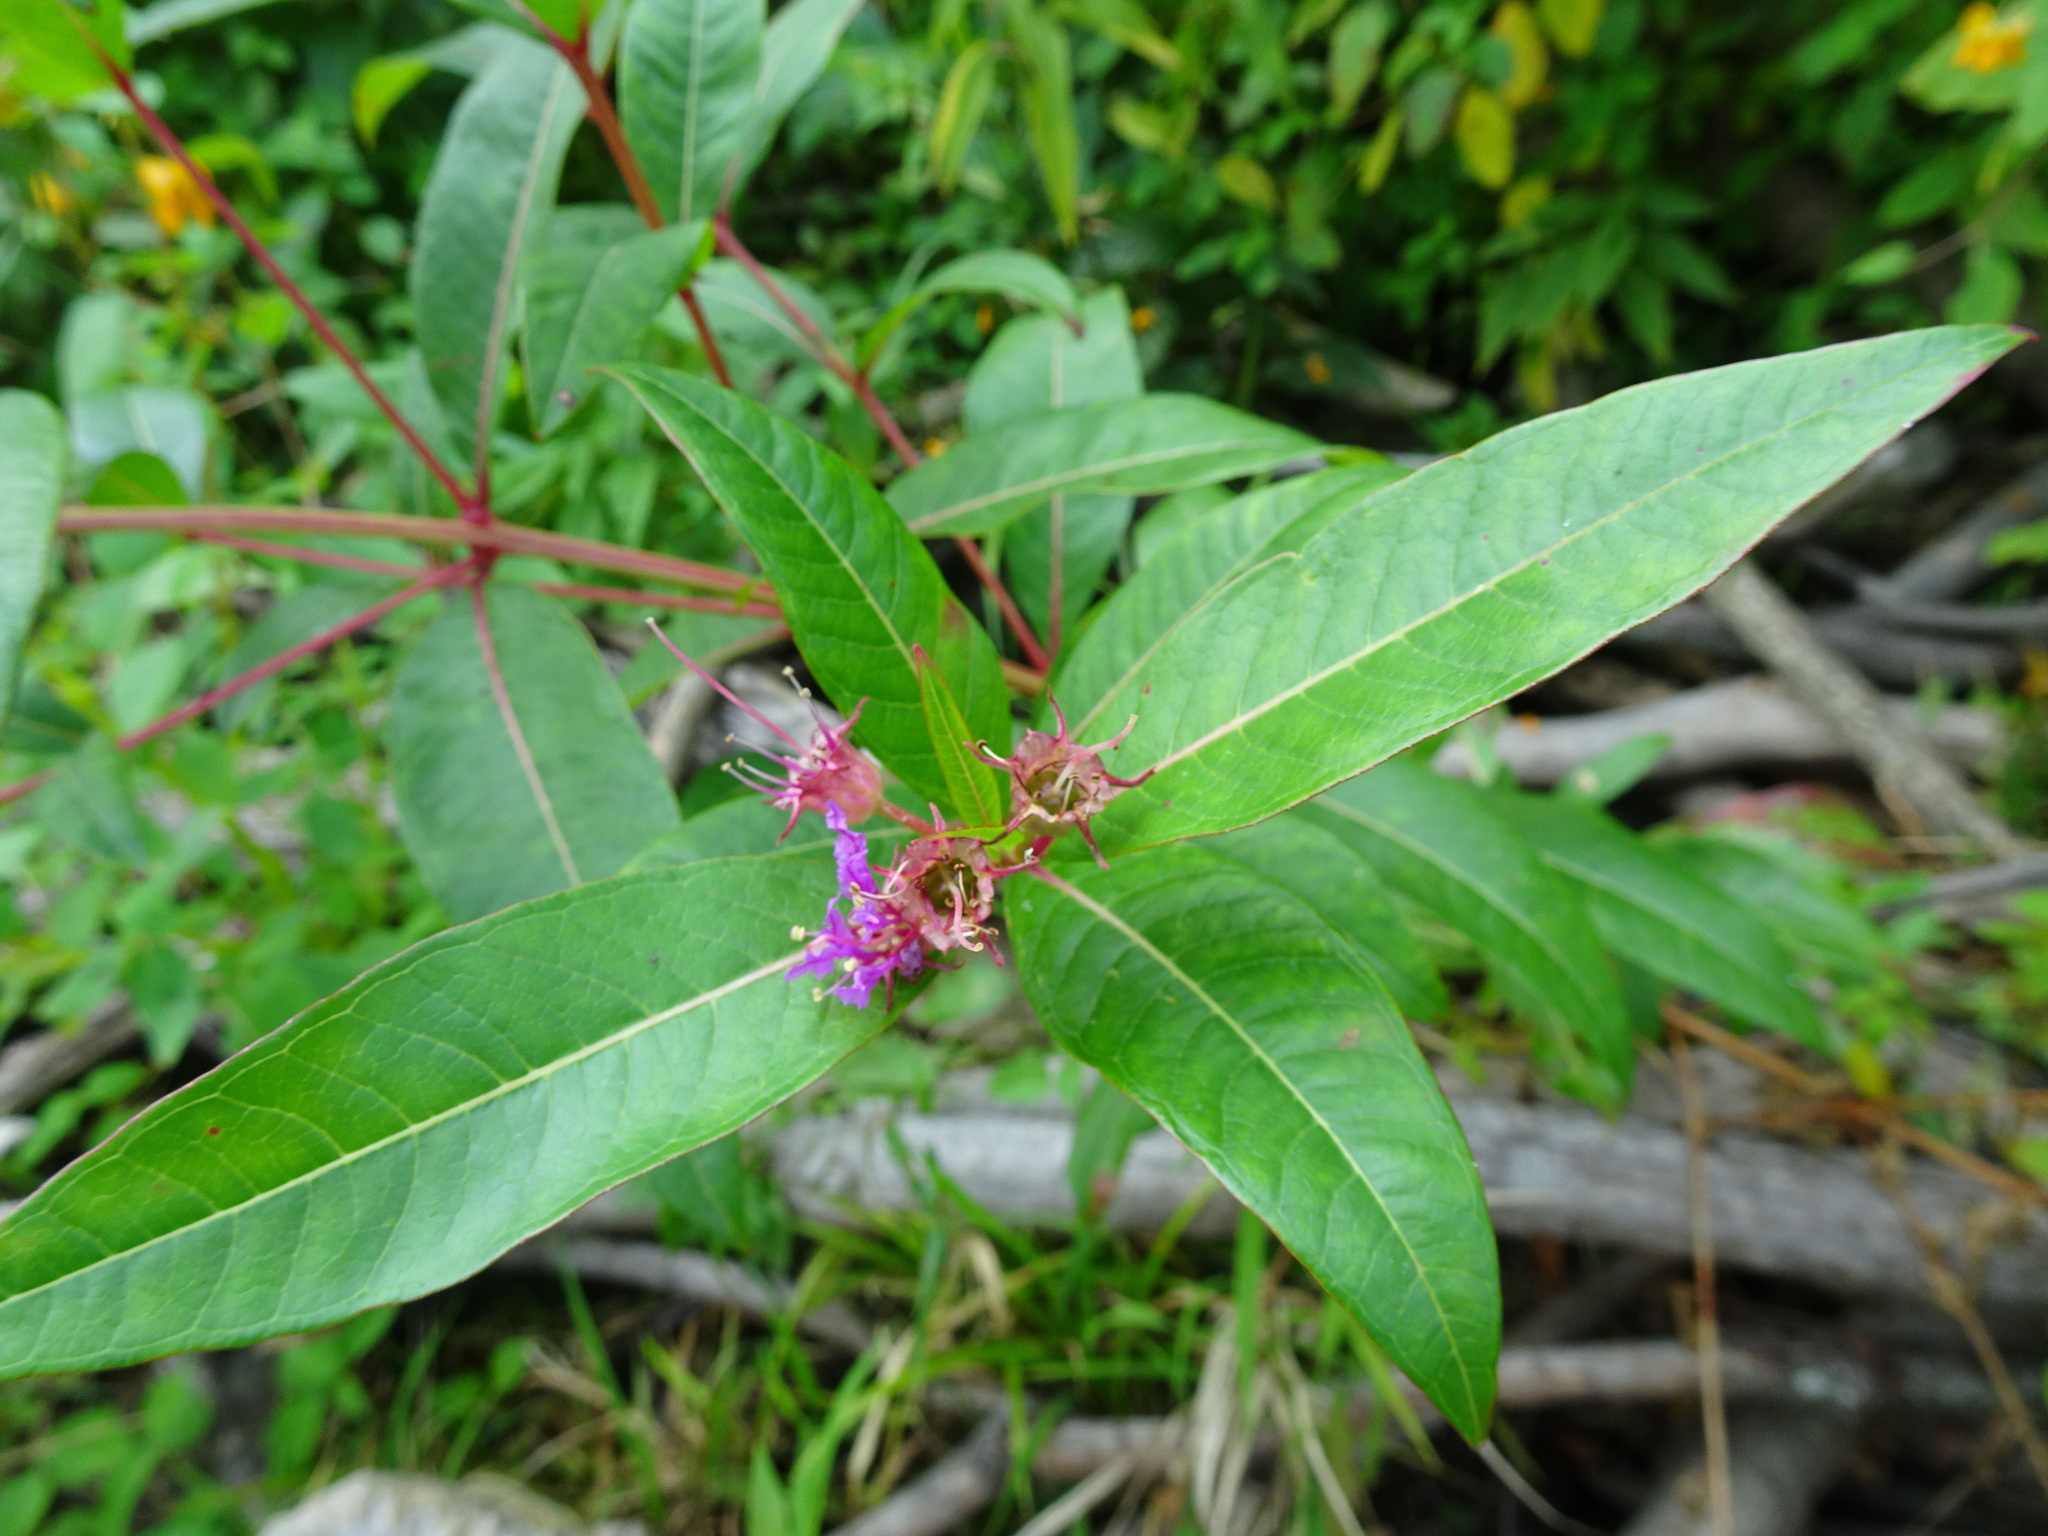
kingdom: Plantae
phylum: Tracheophyta
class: Magnoliopsida
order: Myrtales
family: Lythraceae
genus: Decodon
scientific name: Decodon verticillatus
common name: Hairy swamp loosestrife
